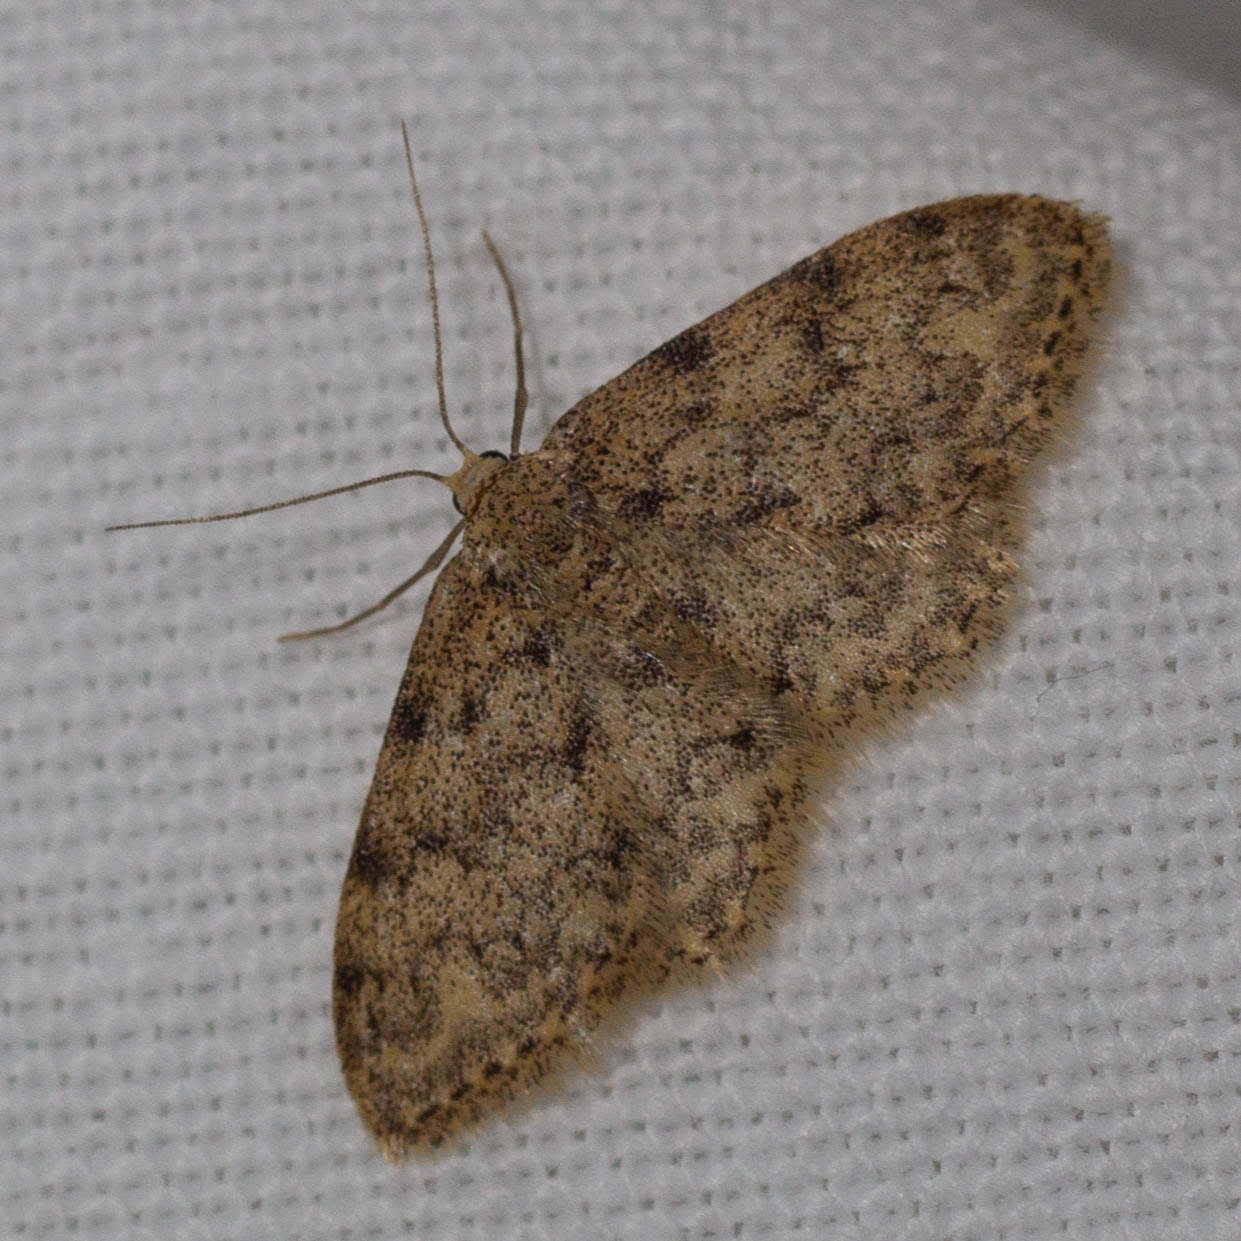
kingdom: Animalia
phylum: Arthropoda
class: Insecta
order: Lepidoptera
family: Geometridae
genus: Idaea
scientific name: Idaea cervantaria
